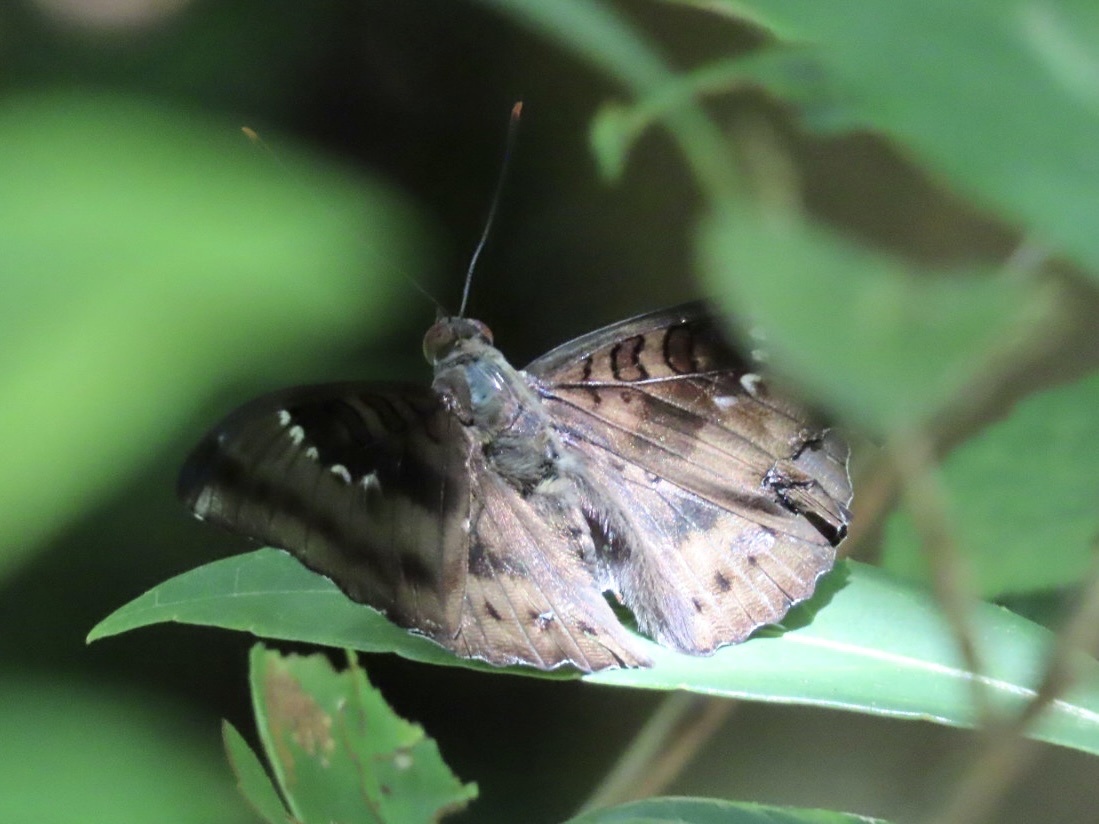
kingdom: Animalia
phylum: Arthropoda
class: Insecta
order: Lepidoptera
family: Nymphalidae
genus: Euthalia
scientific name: Euthalia aconthea
